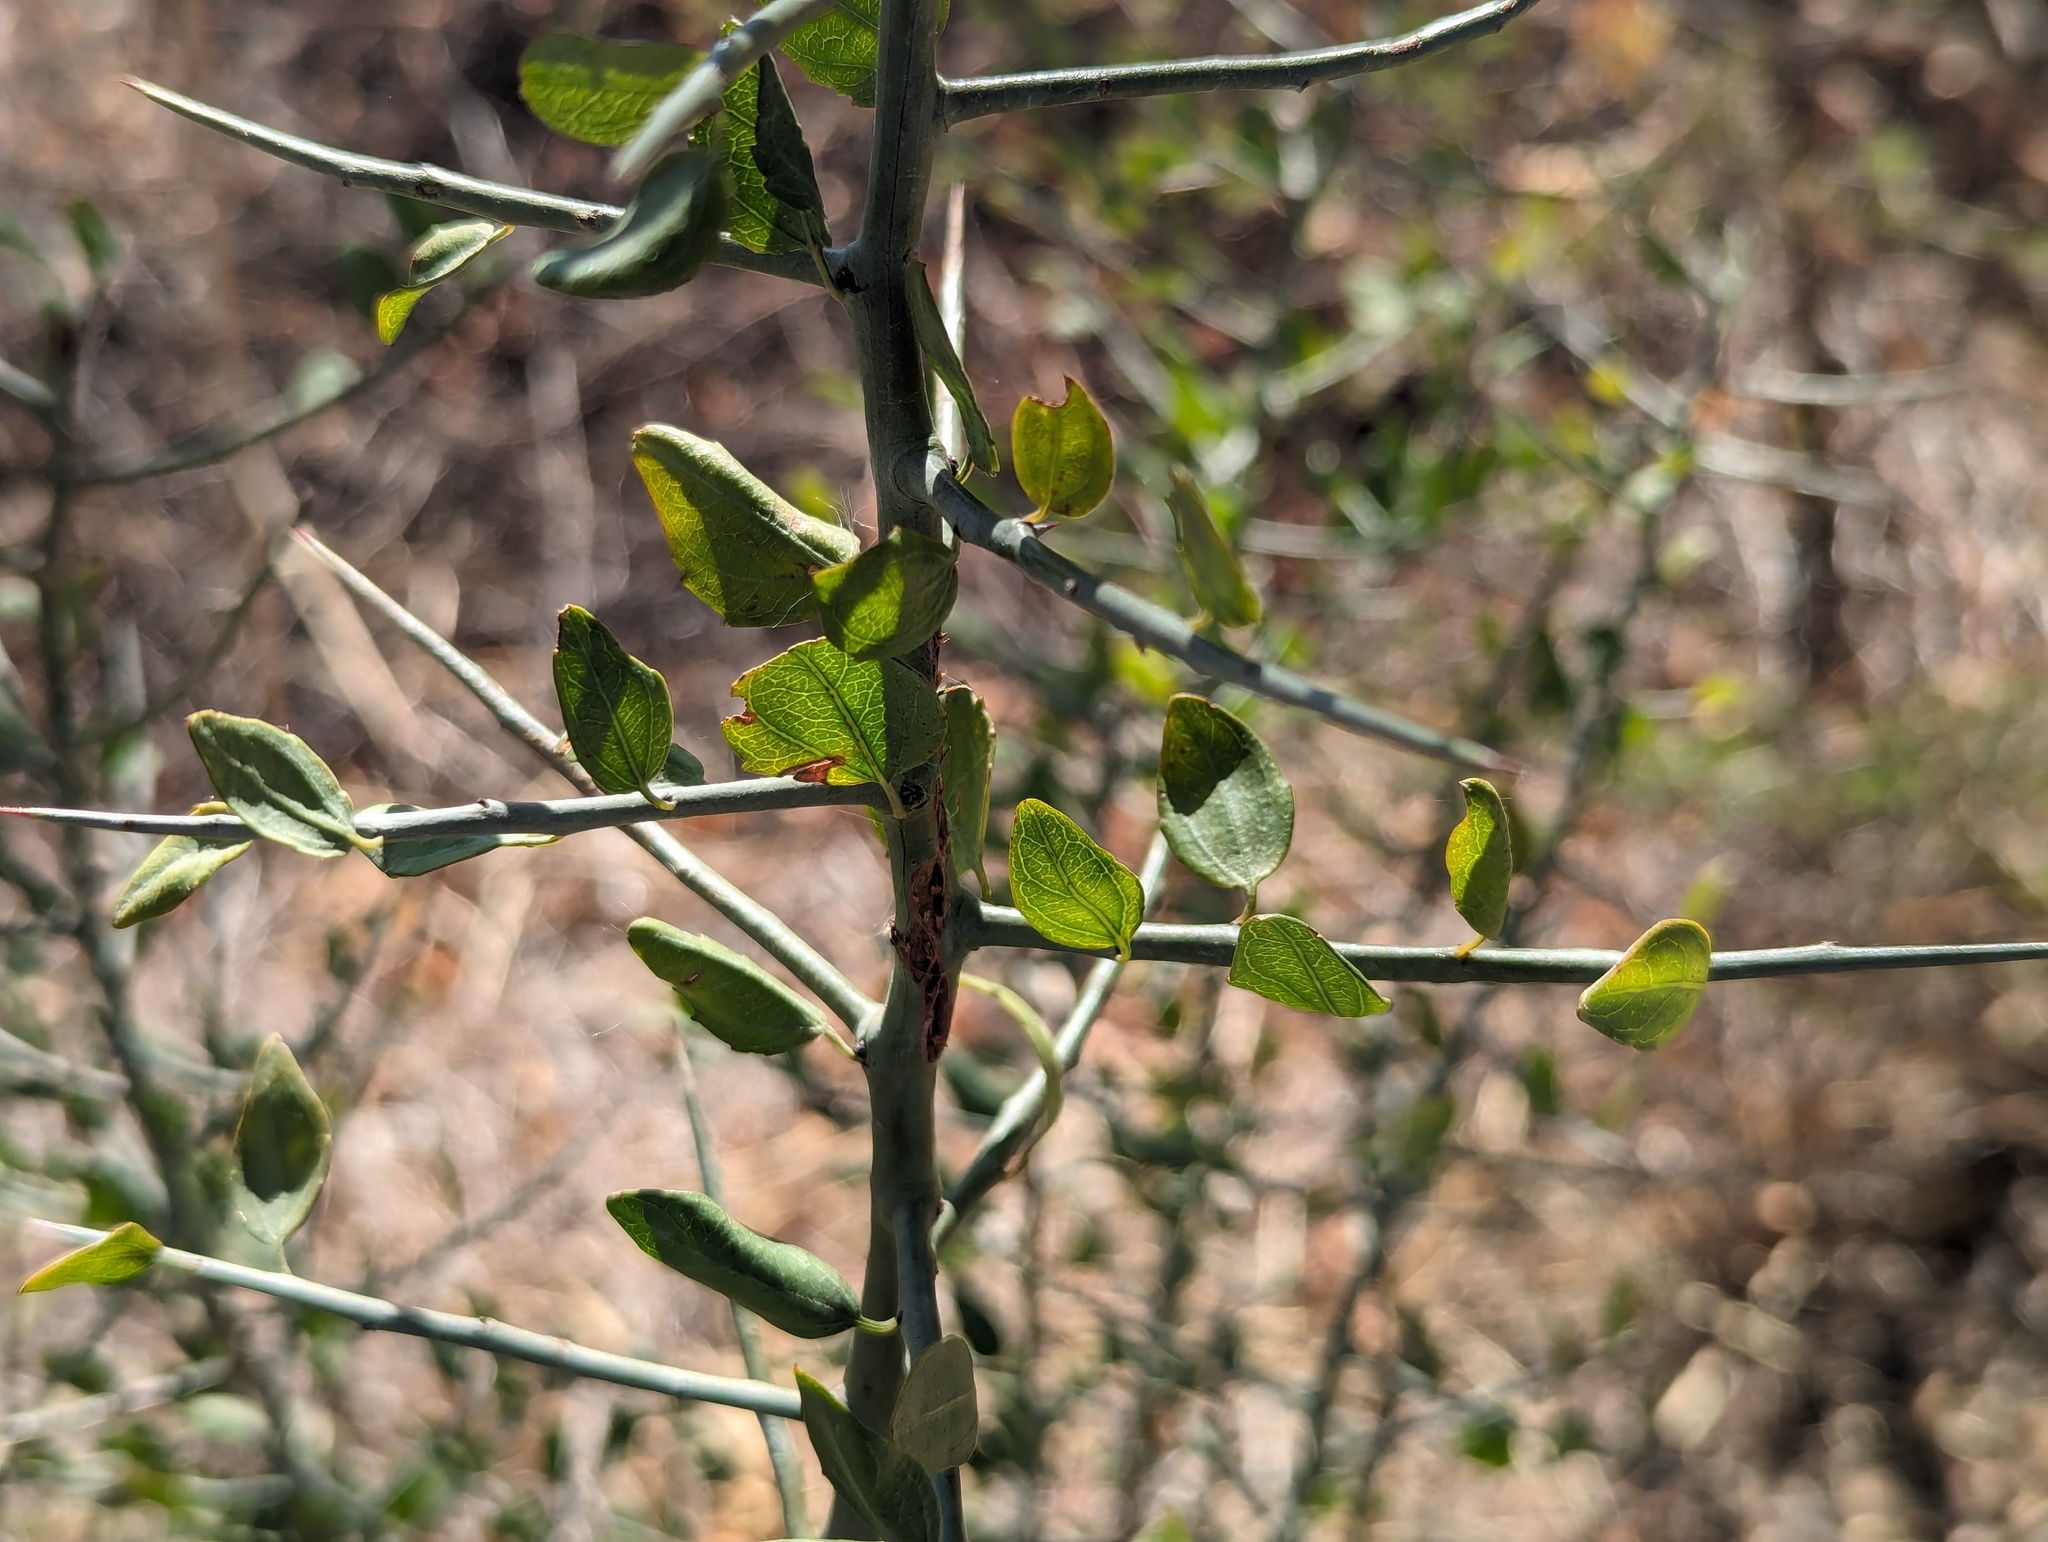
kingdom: Plantae
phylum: Tracheophyta
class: Magnoliopsida
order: Rosales
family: Rhamnaceae
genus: Sarcomphalus
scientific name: Sarcomphalus obtusifolius
